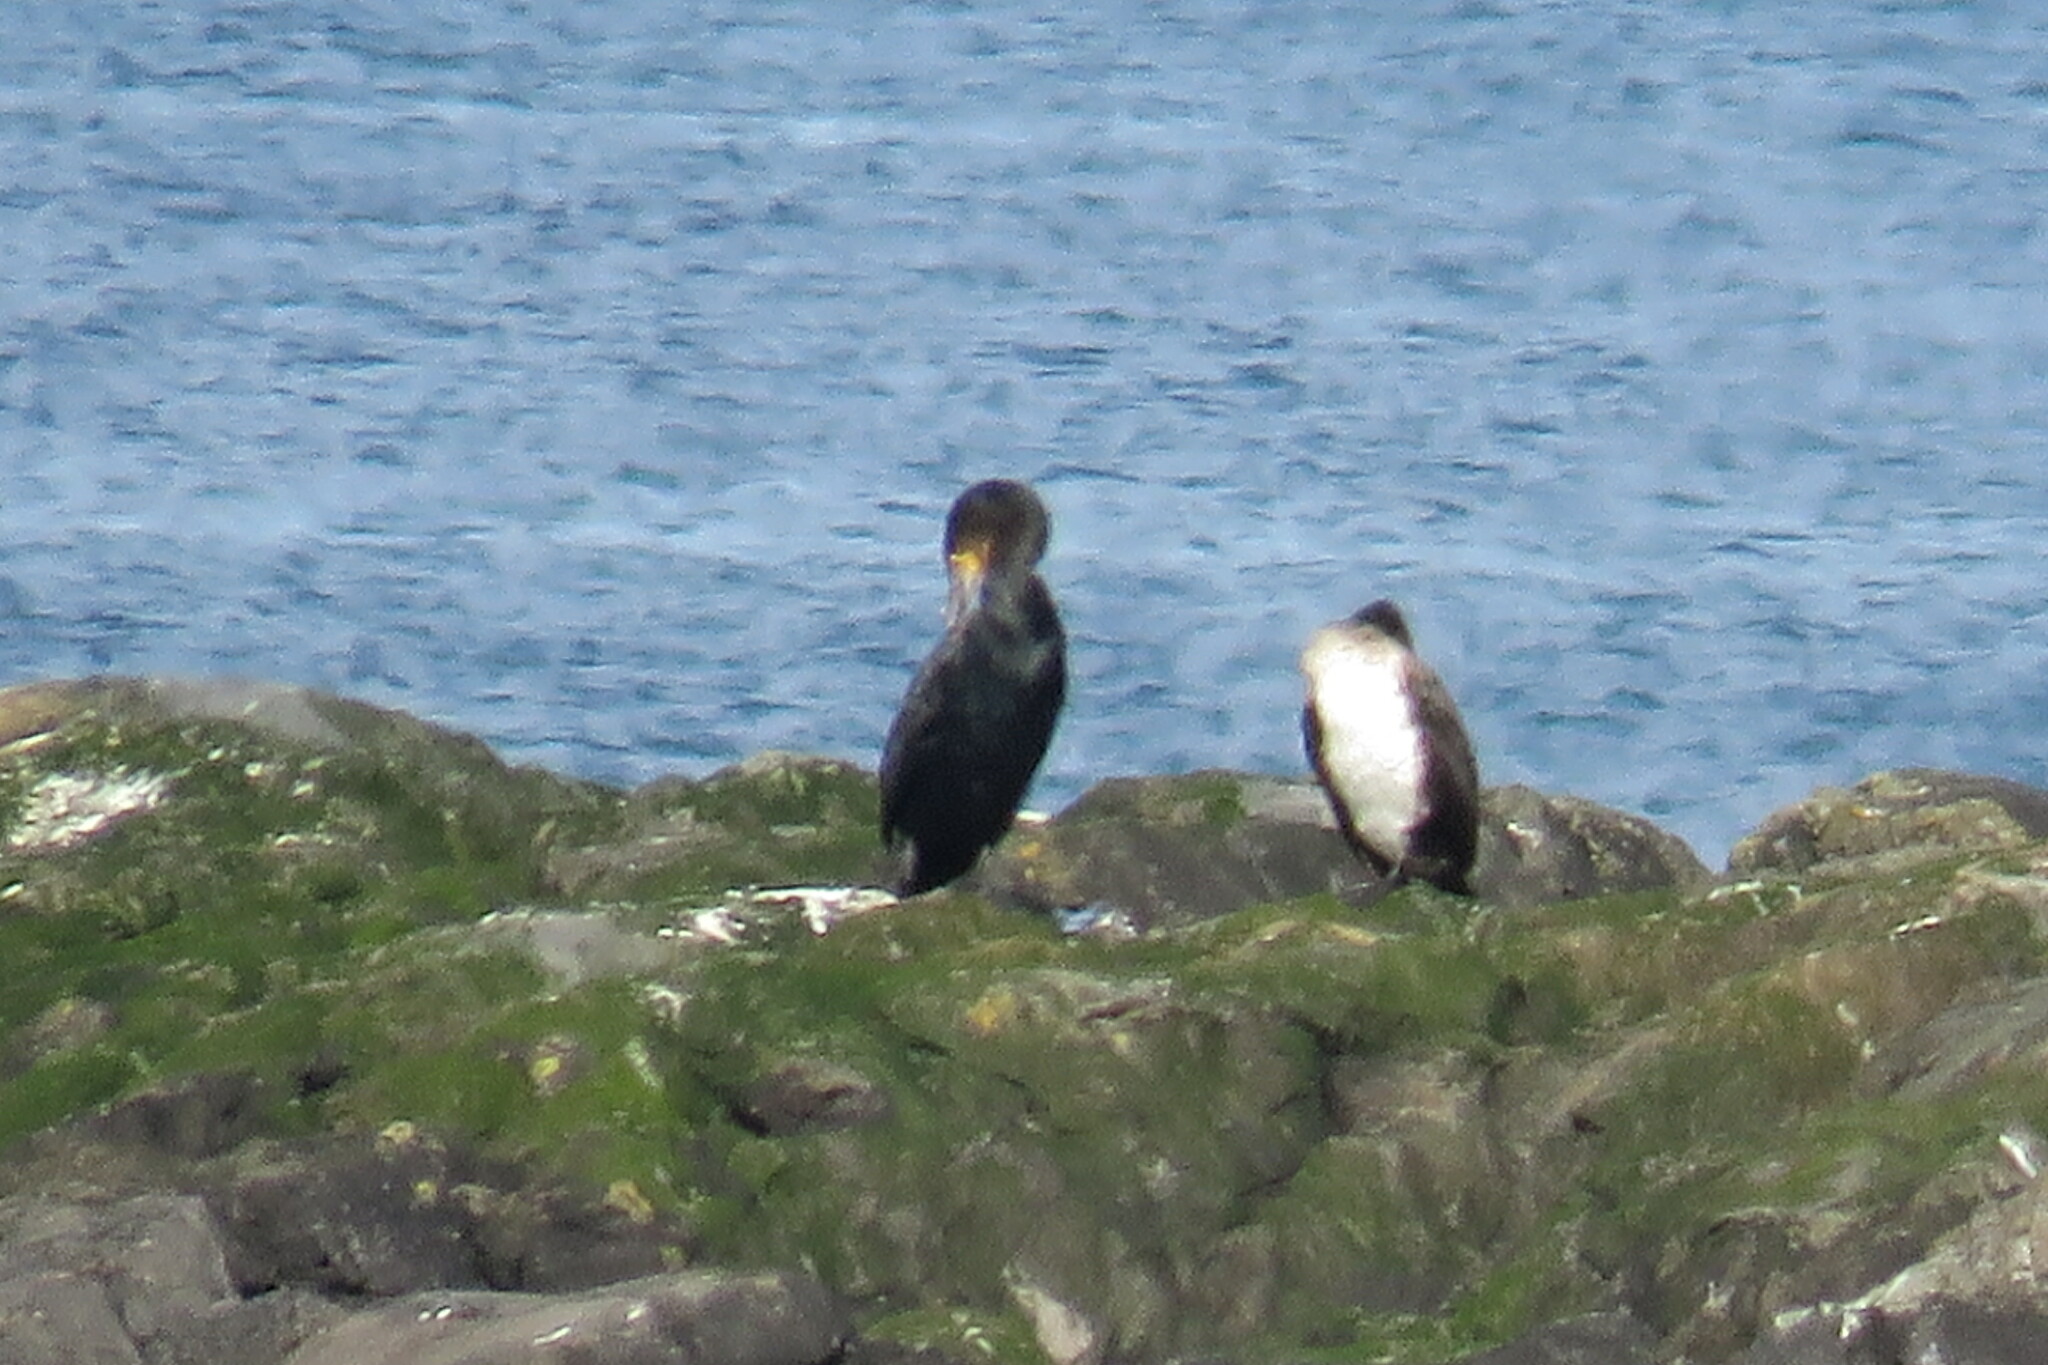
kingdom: Animalia
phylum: Chordata
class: Aves
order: Suliformes
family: Phalacrocoracidae
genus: Phalacrocorax
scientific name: Phalacrocorax carbo
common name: Great cormorant
